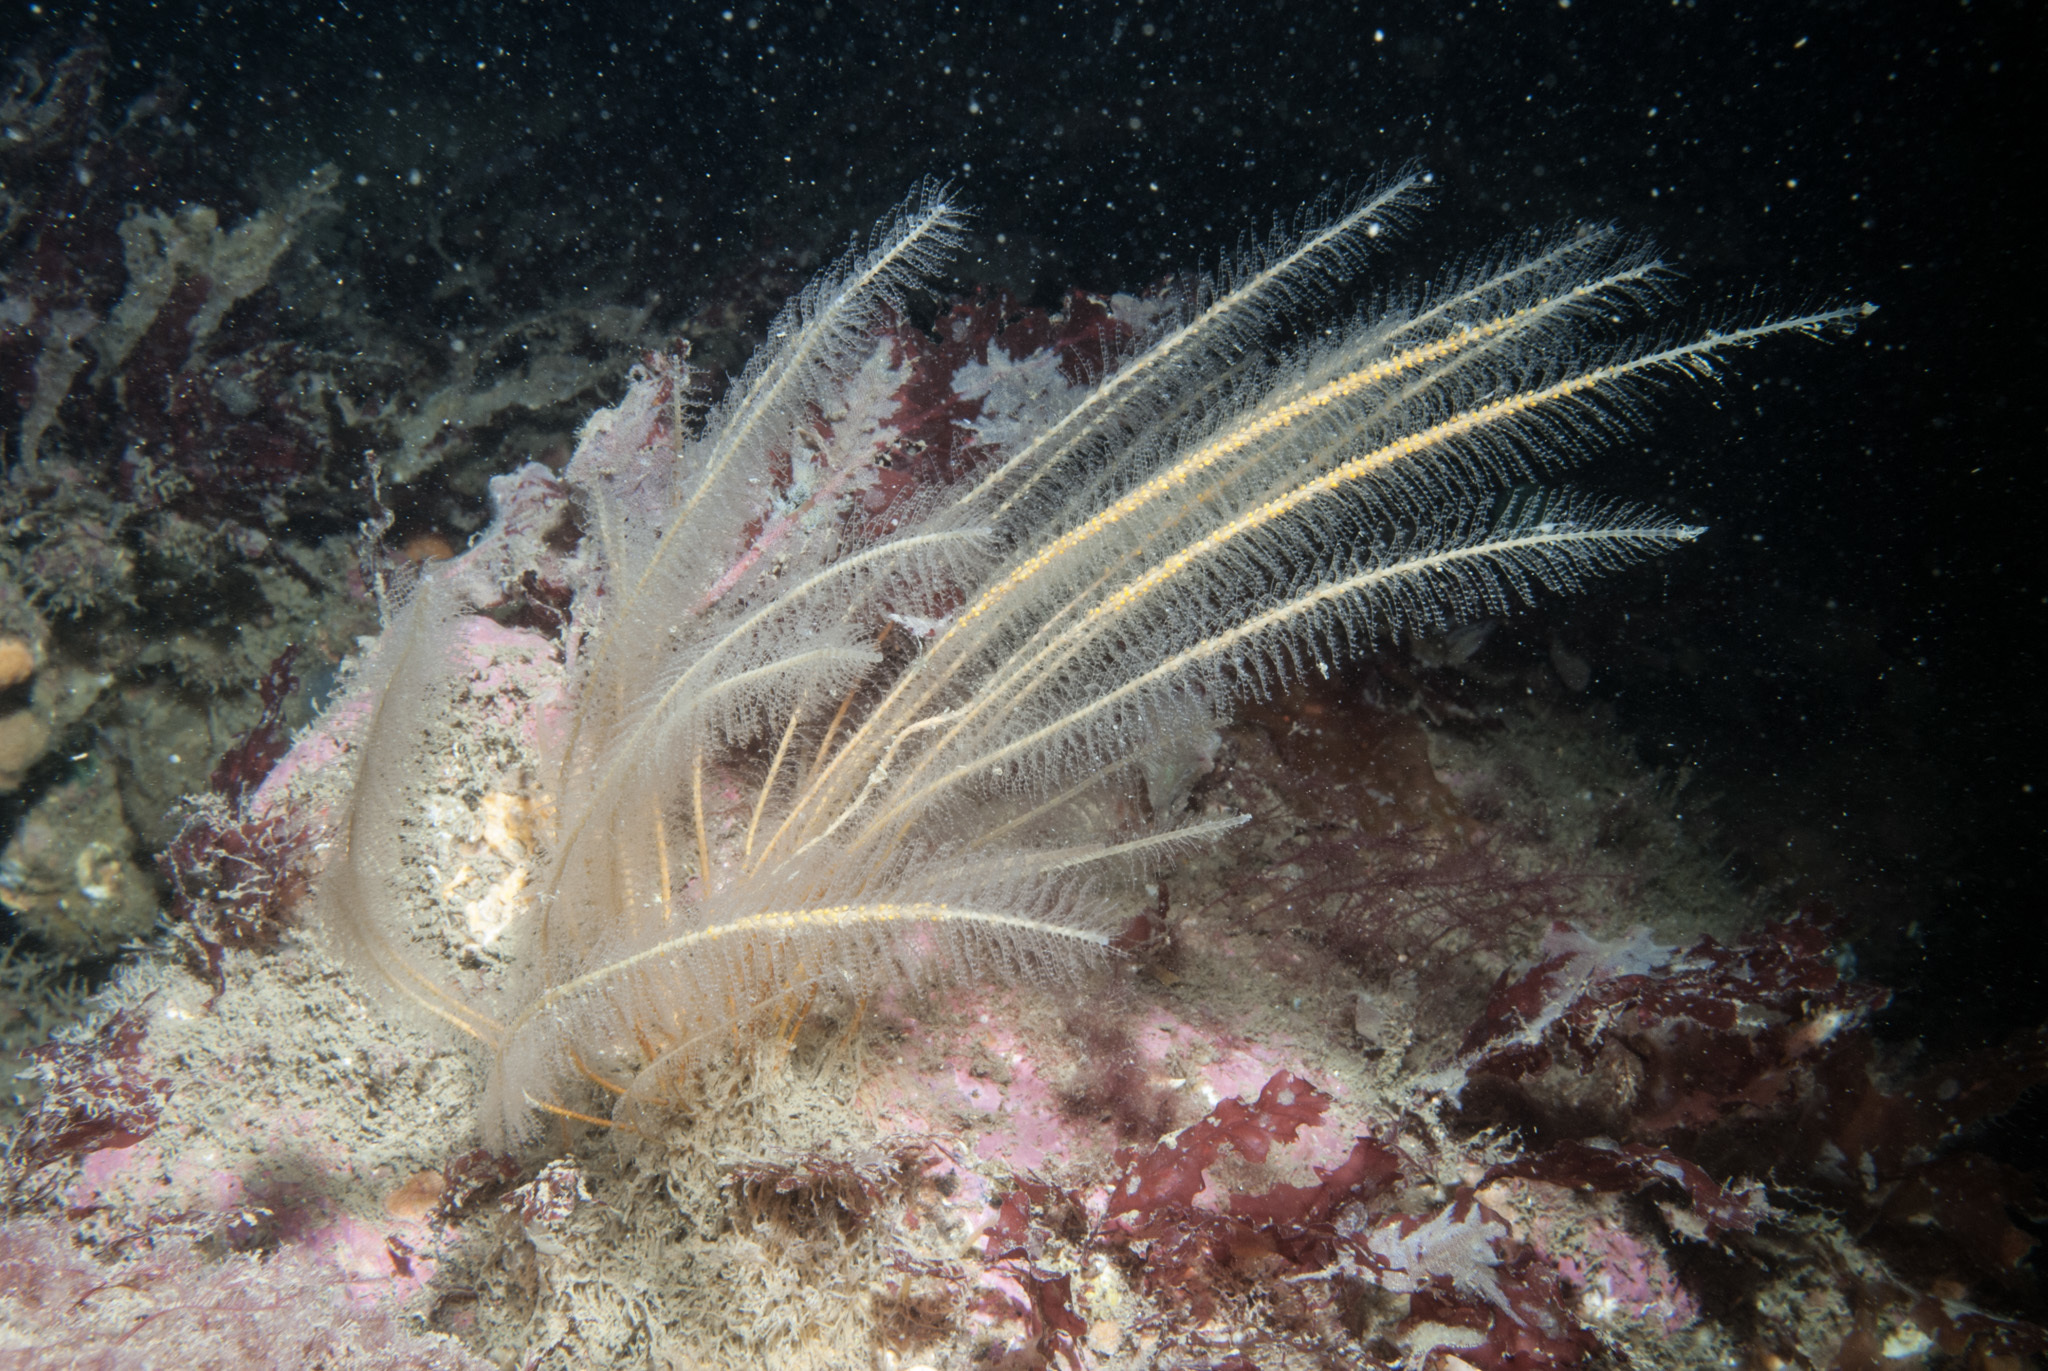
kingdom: Animalia
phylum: Cnidaria
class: Hydrozoa
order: Leptothecata
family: Plumulariidae
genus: Nemertesia
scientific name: Nemertesia antennina
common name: Sea beard
